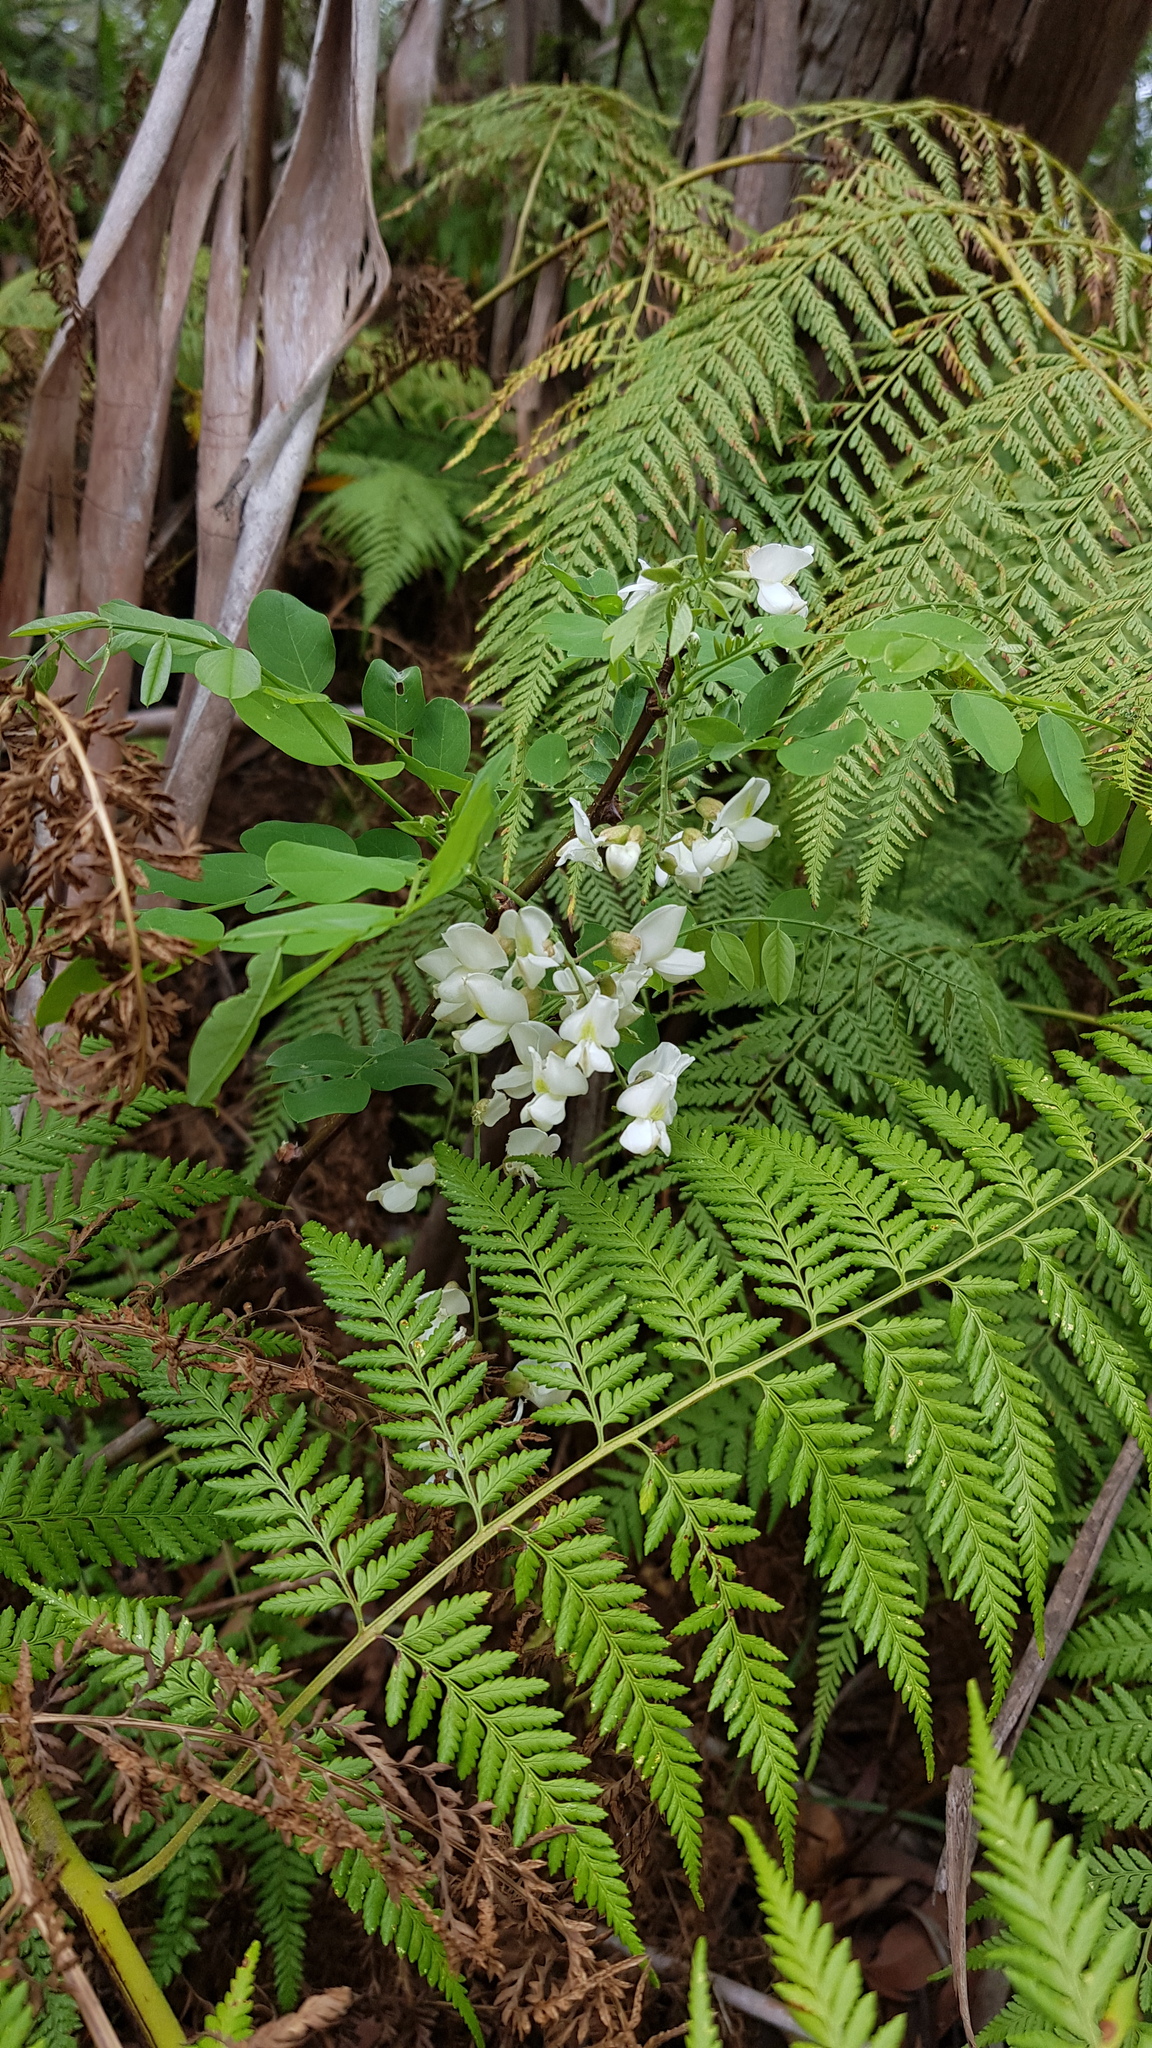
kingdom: Plantae
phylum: Tracheophyta
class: Magnoliopsida
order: Fabales
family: Fabaceae
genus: Robinia
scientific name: Robinia pseudoacacia
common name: Black locust
